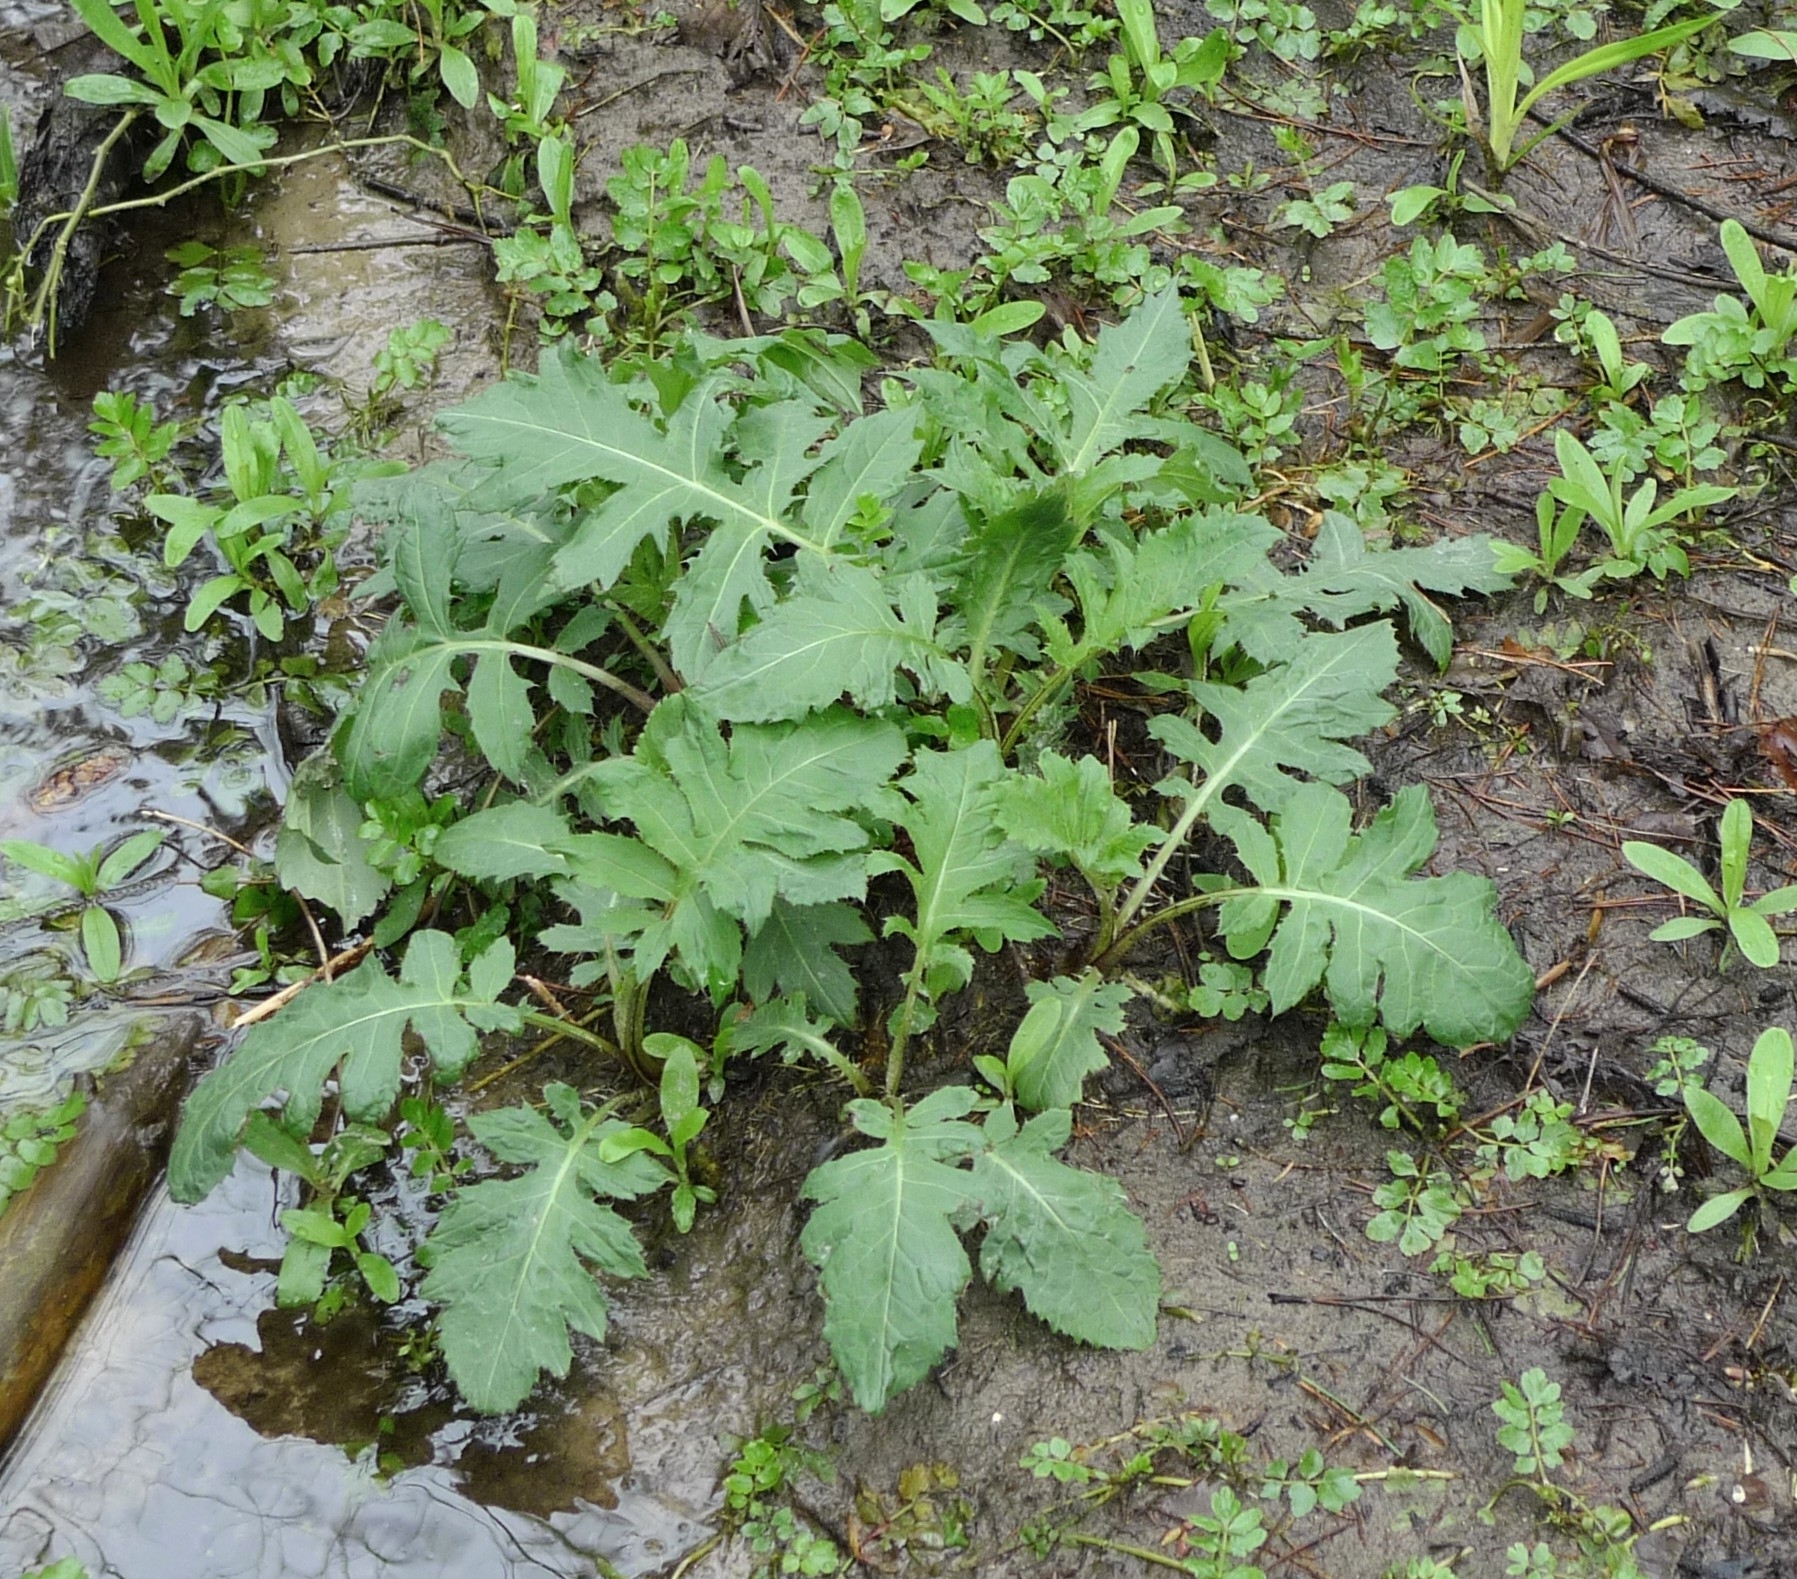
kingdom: Plantae
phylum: Tracheophyta
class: Magnoliopsida
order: Asterales
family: Asteraceae
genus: Cirsium
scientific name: Cirsium oleraceum
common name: Cabbage thistle
